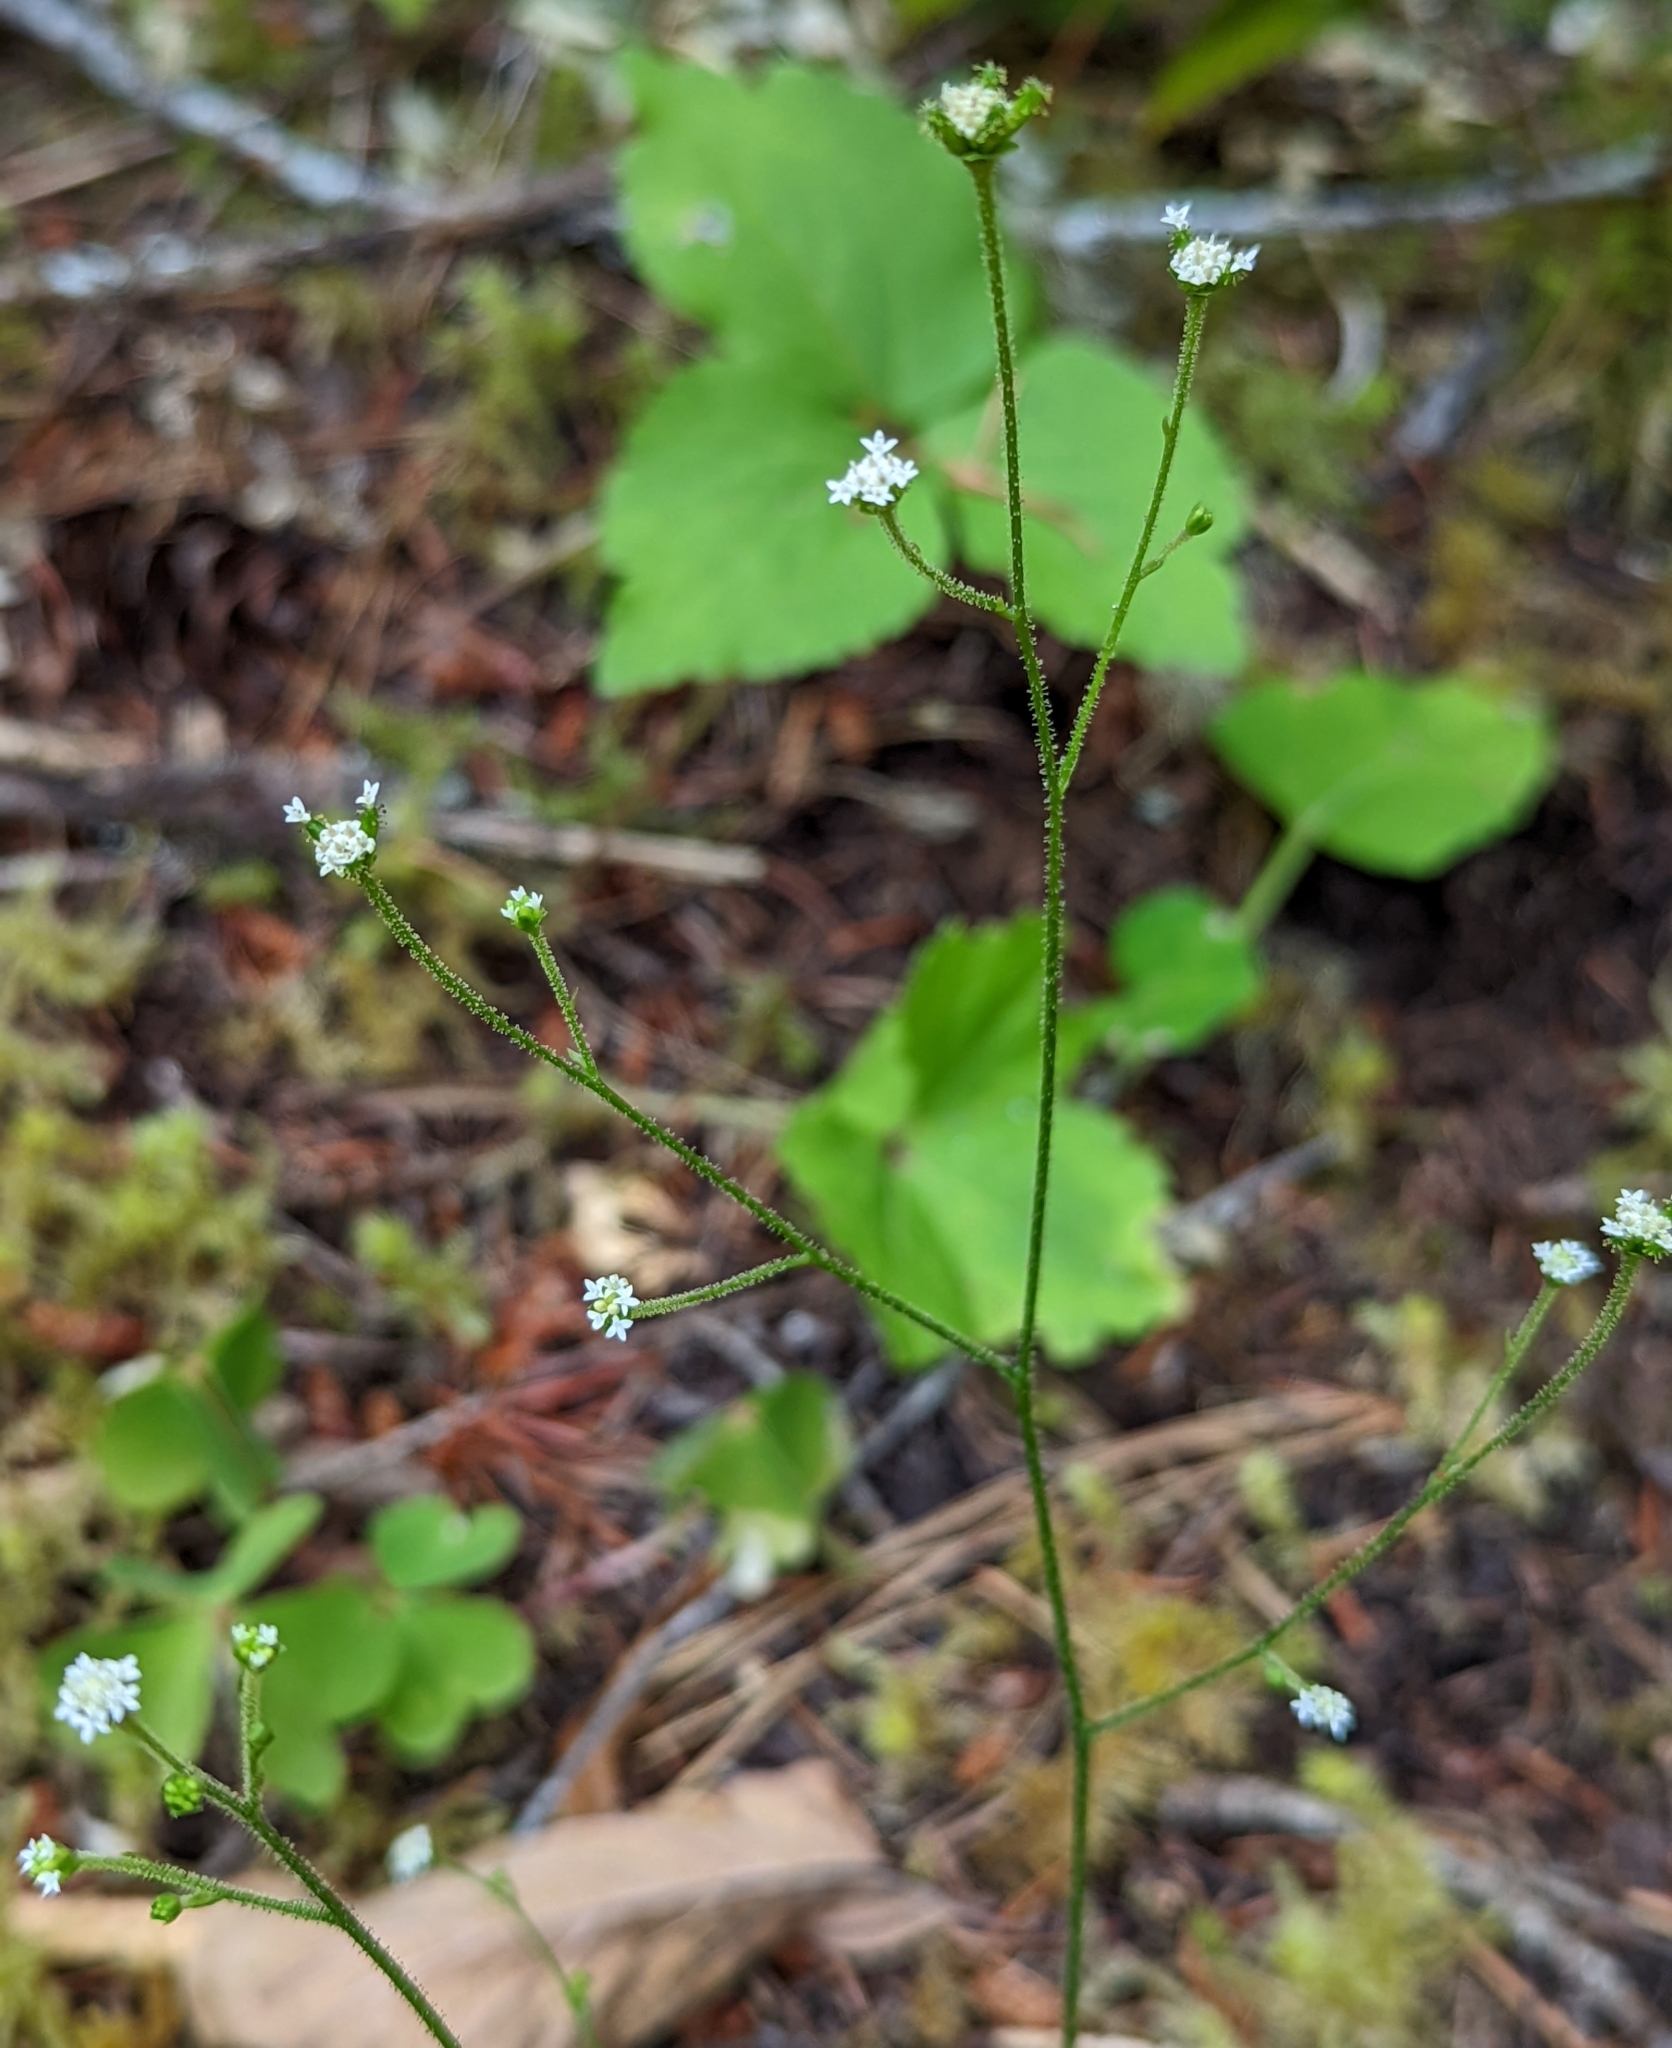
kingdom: Plantae
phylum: Tracheophyta
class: Magnoliopsida
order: Asterales
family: Asteraceae
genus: Adenocaulon
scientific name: Adenocaulon bicolor
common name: Trailplant
